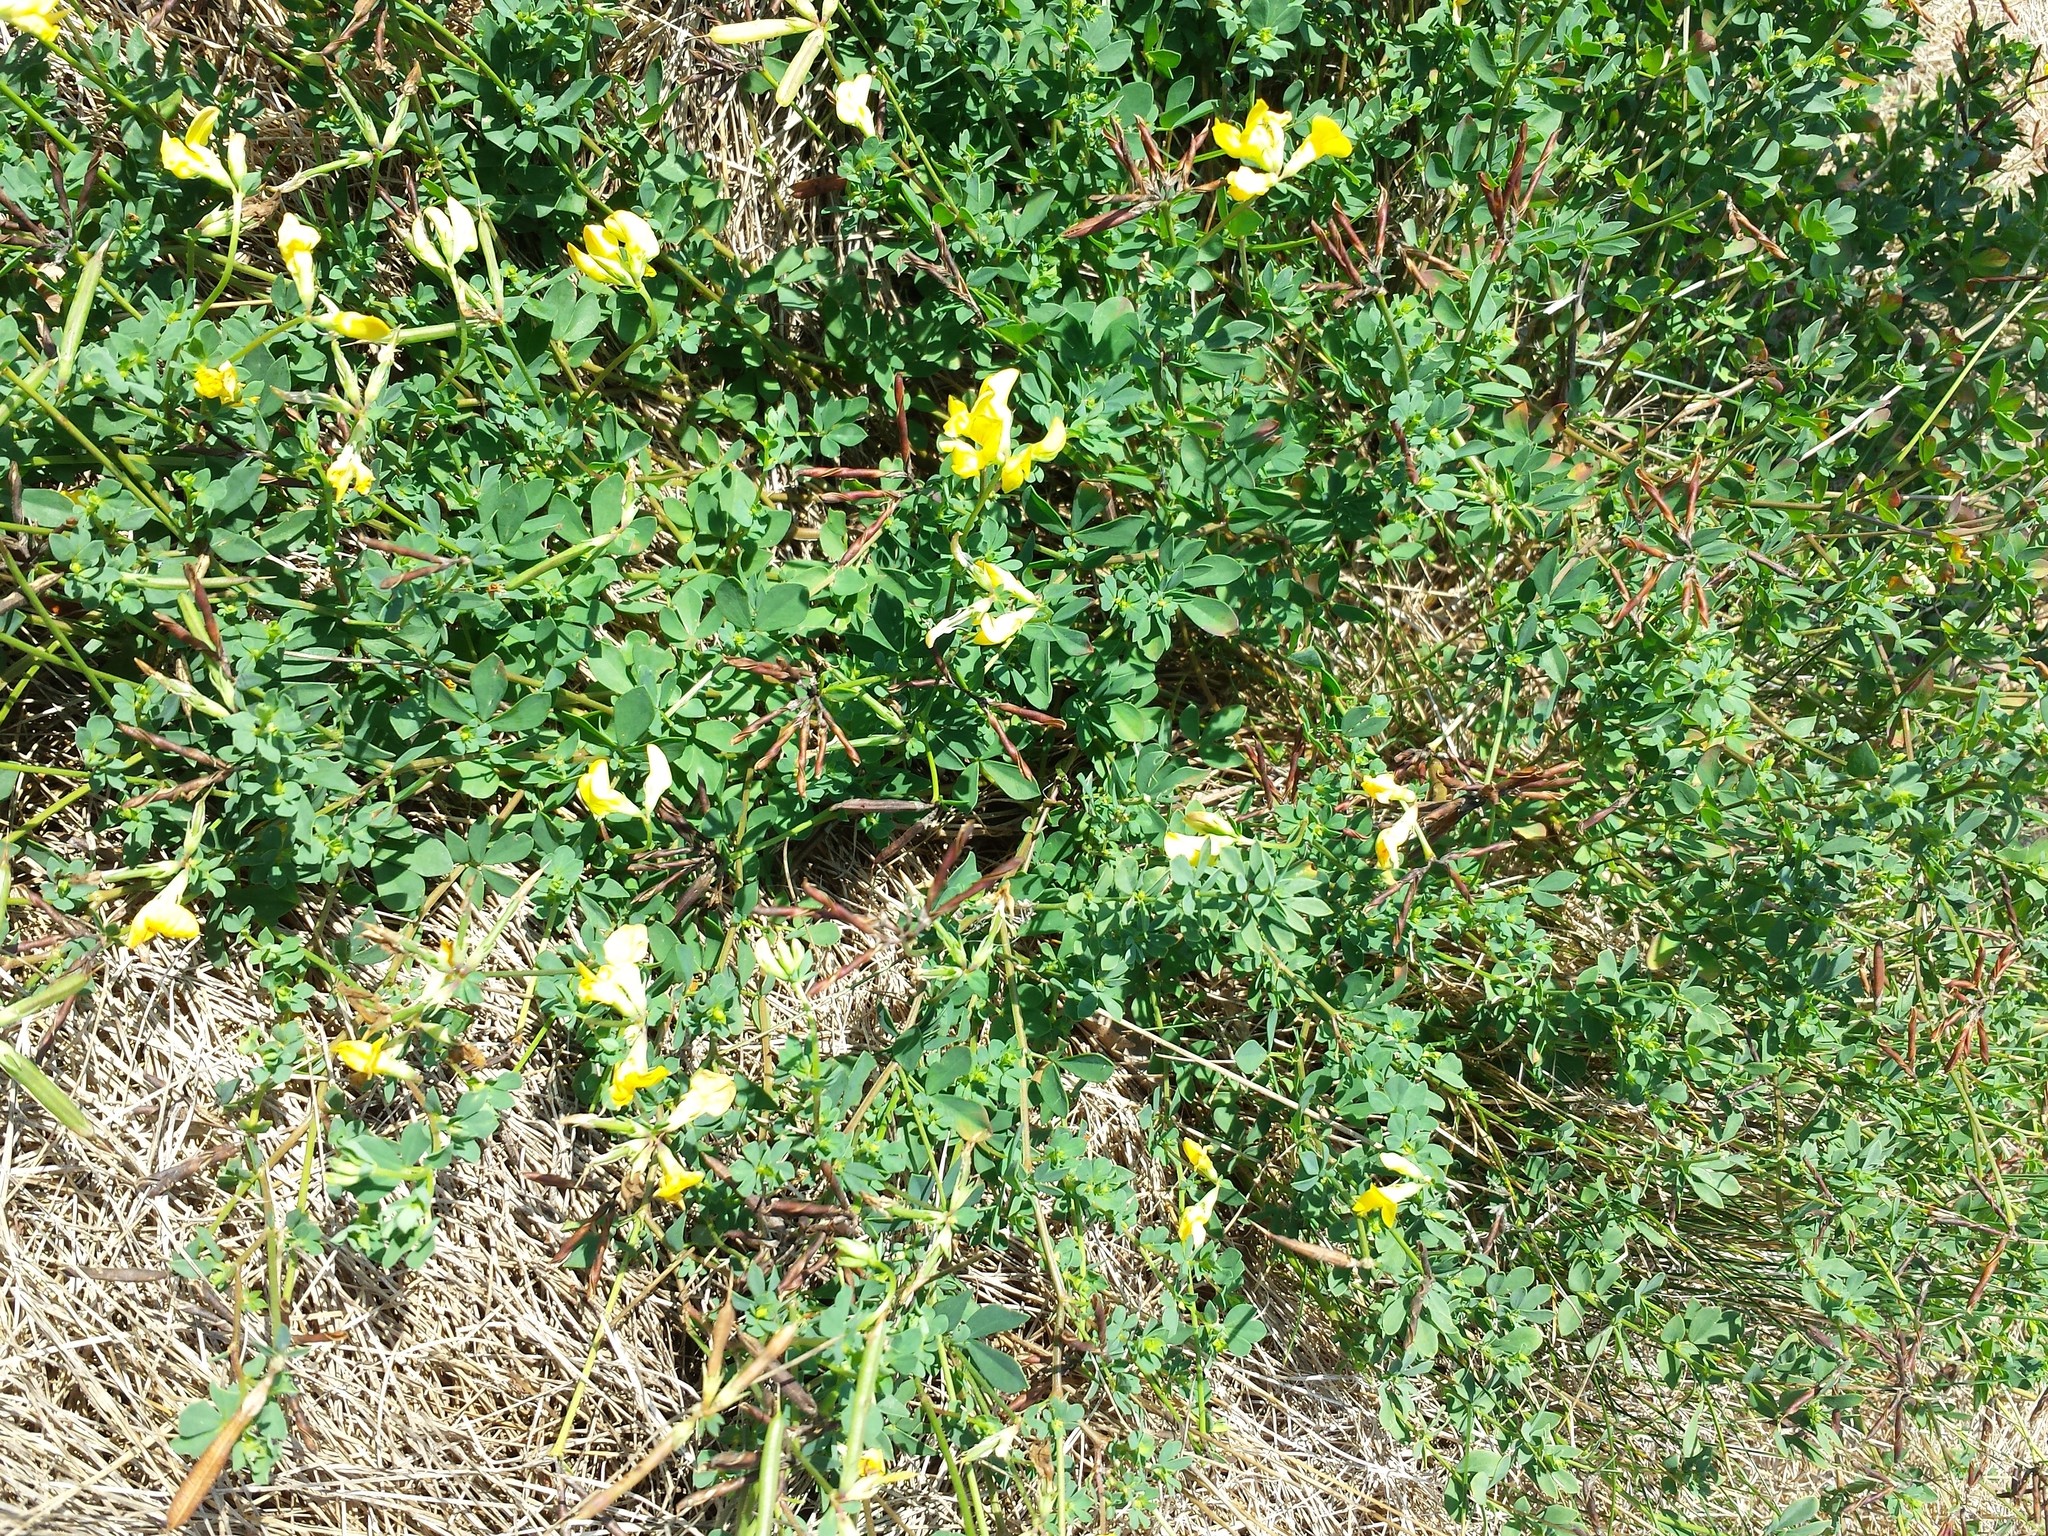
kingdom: Plantae
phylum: Tracheophyta
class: Magnoliopsida
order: Fabales
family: Fabaceae
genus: Lotus
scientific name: Lotus corniculatus
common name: Common bird's-foot-trefoil
